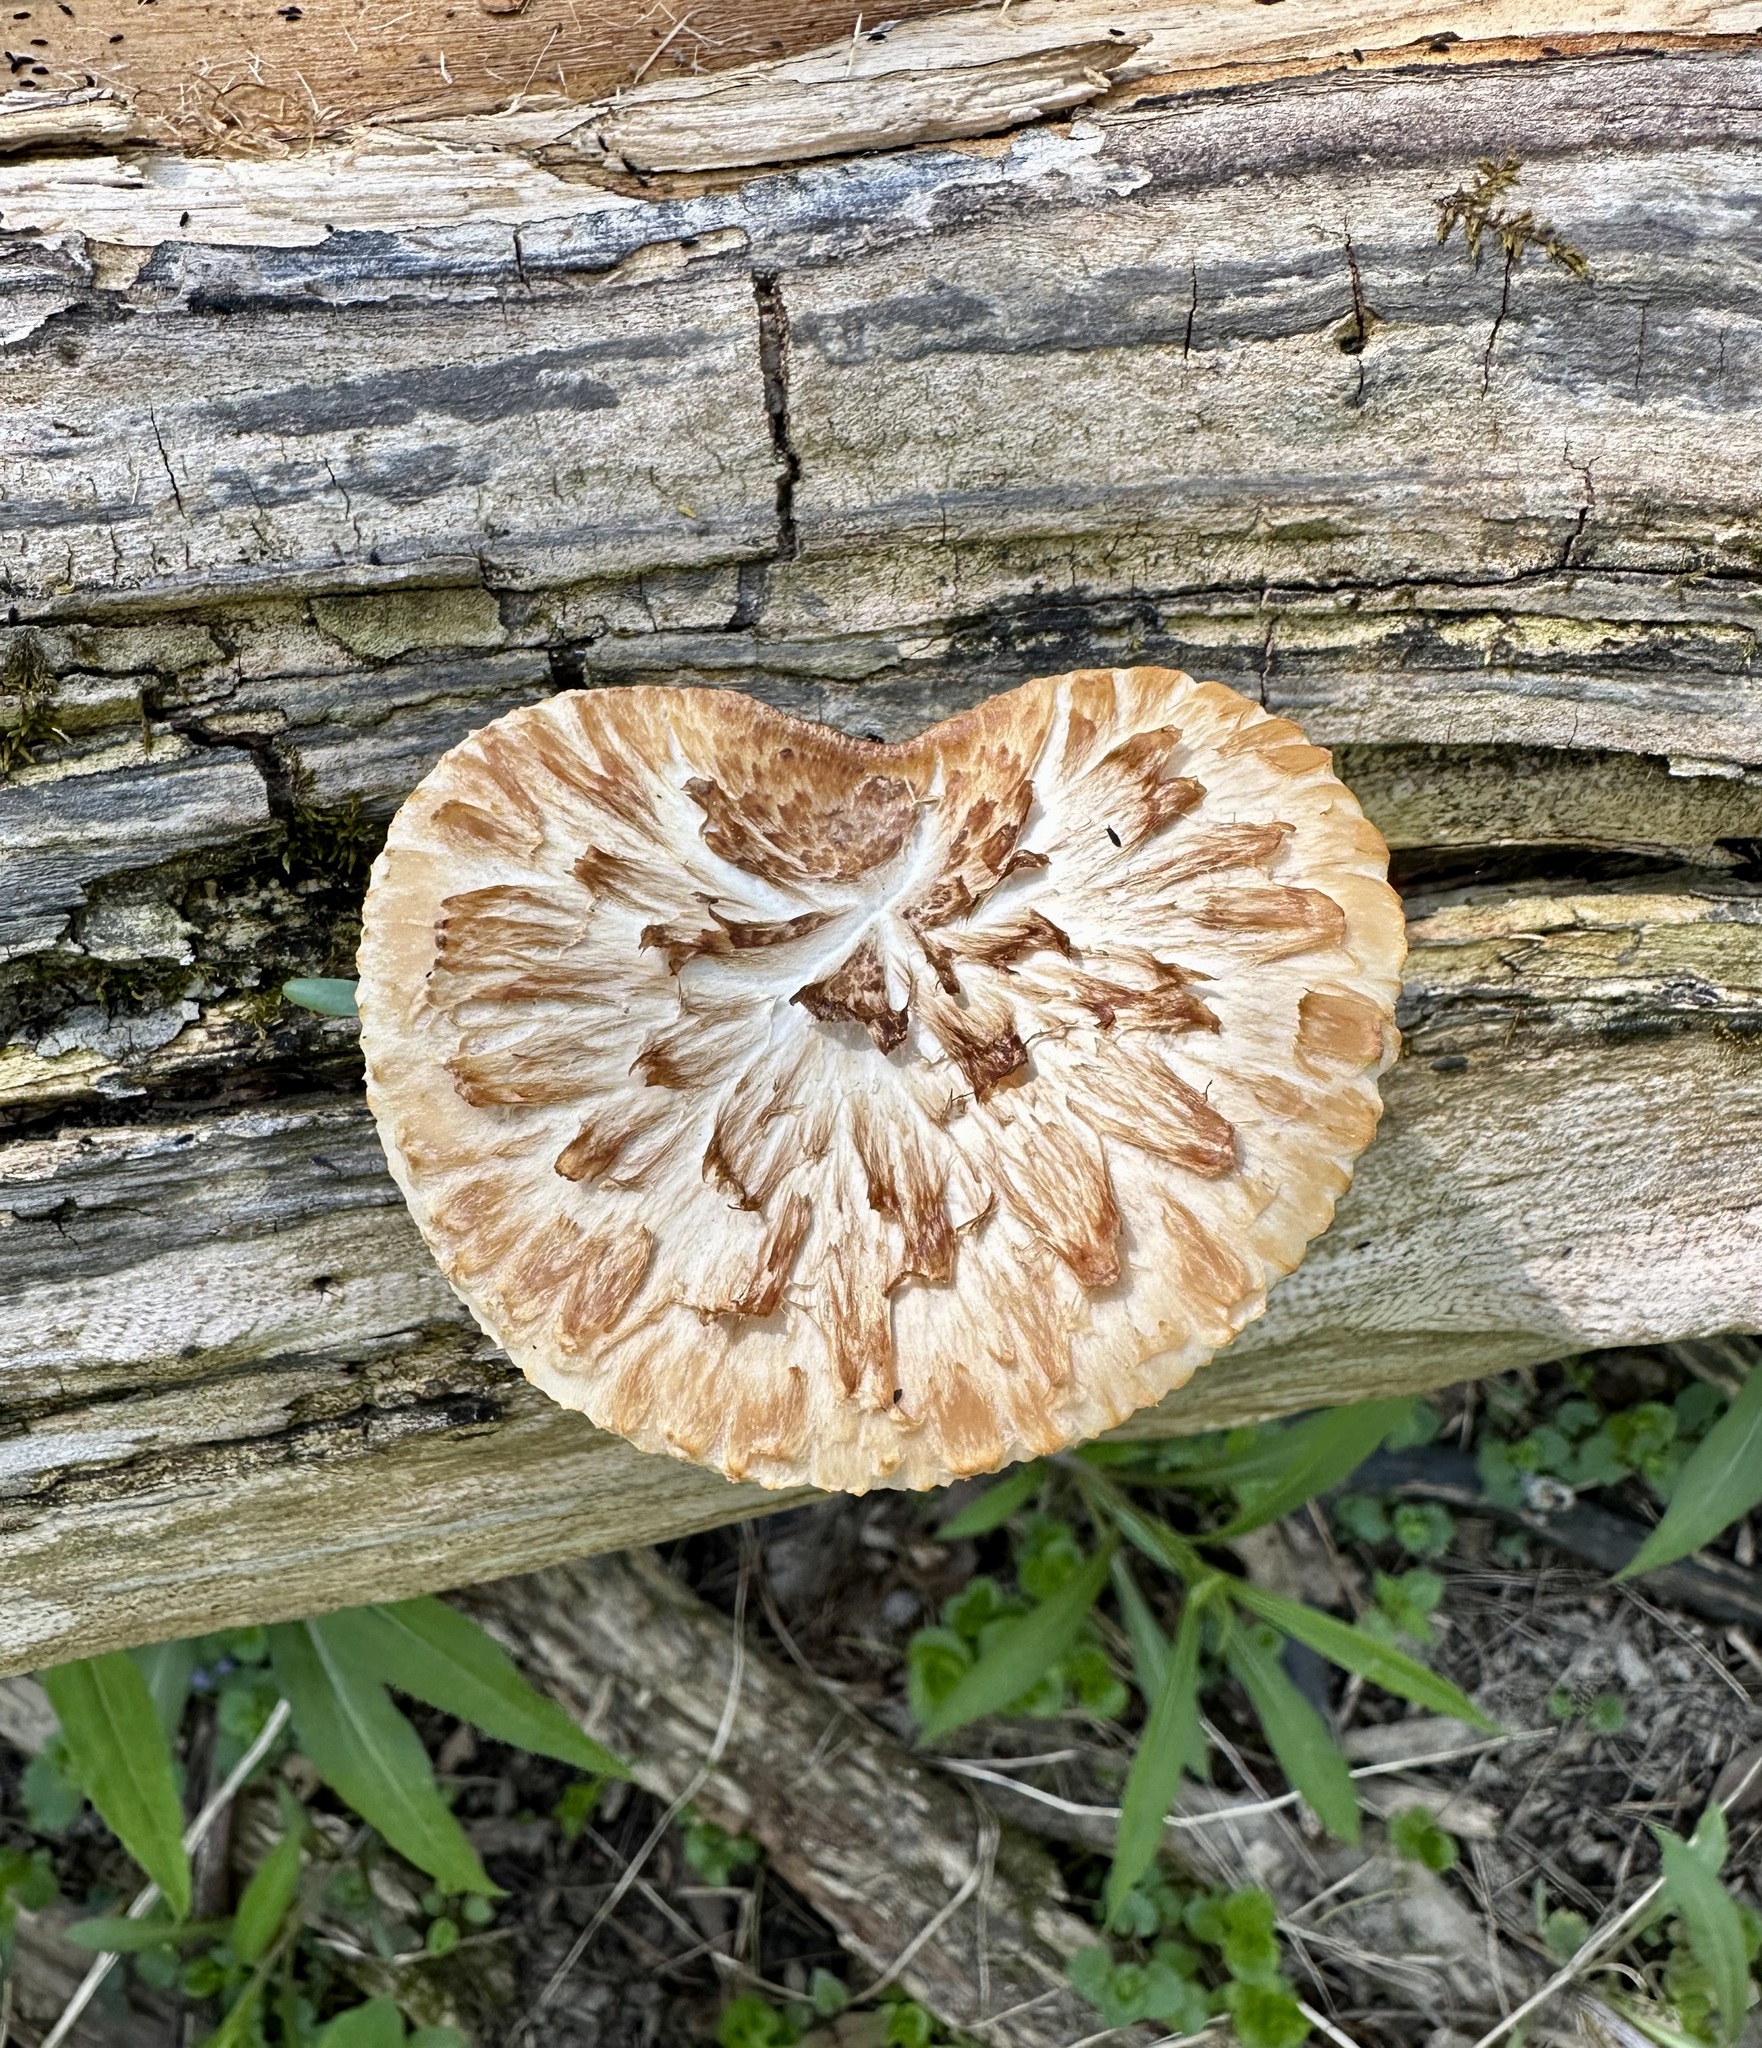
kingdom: Fungi
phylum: Basidiomycota
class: Agaricomycetes
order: Polyporales
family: Polyporaceae
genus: Cerioporus
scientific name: Cerioporus squamosus
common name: Dryad's saddle
